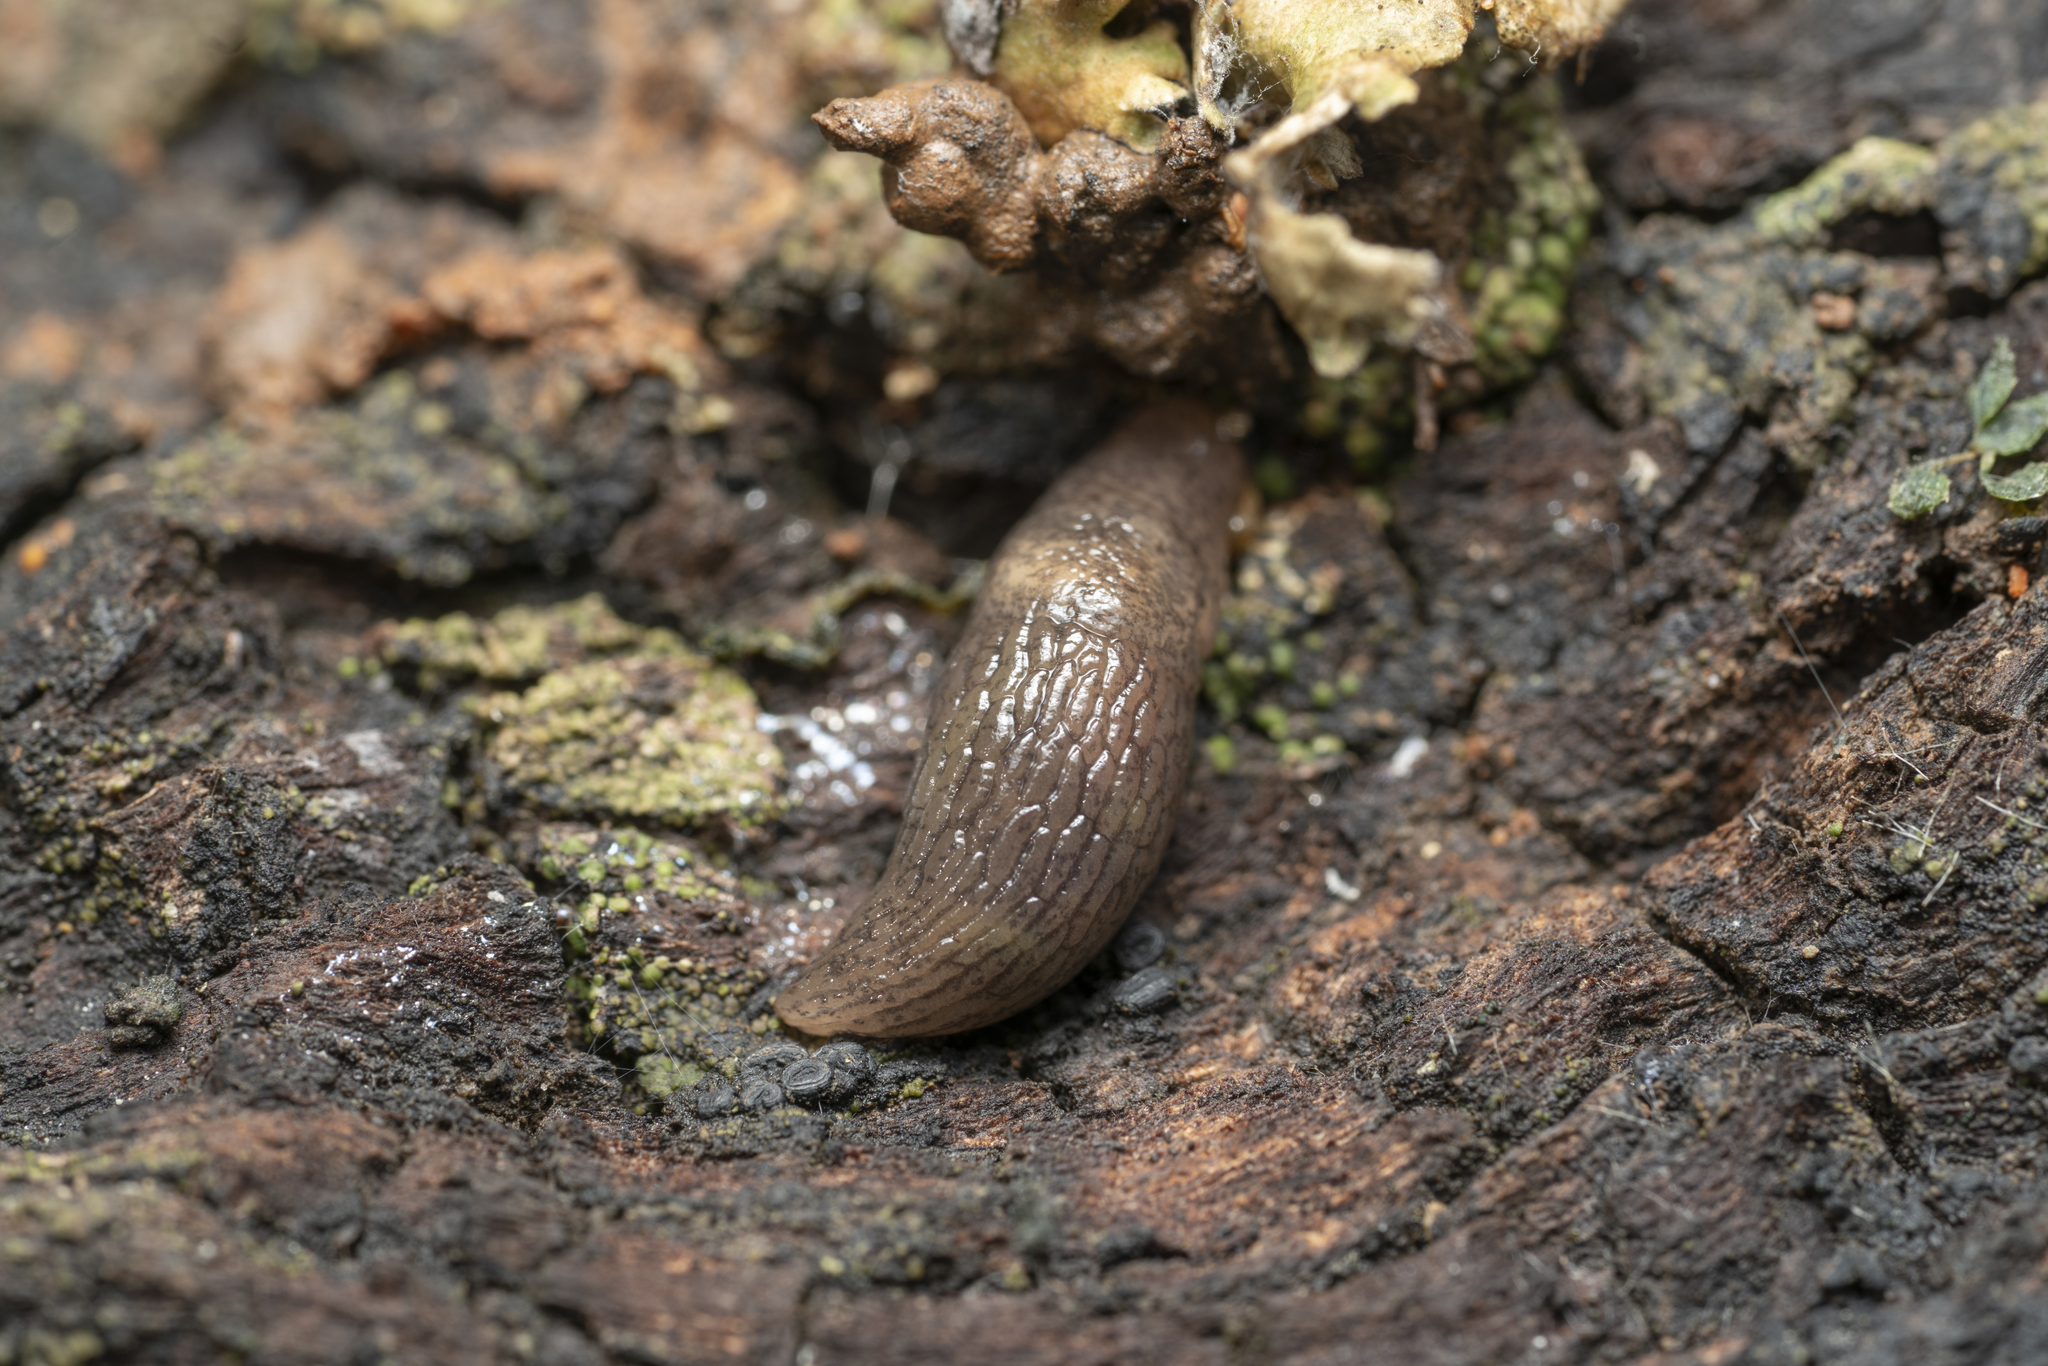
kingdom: Animalia
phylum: Mollusca
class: Gastropoda
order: Stylommatophora
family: Agriolimacidae
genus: Deroceras
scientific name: Deroceras neuteboomi
